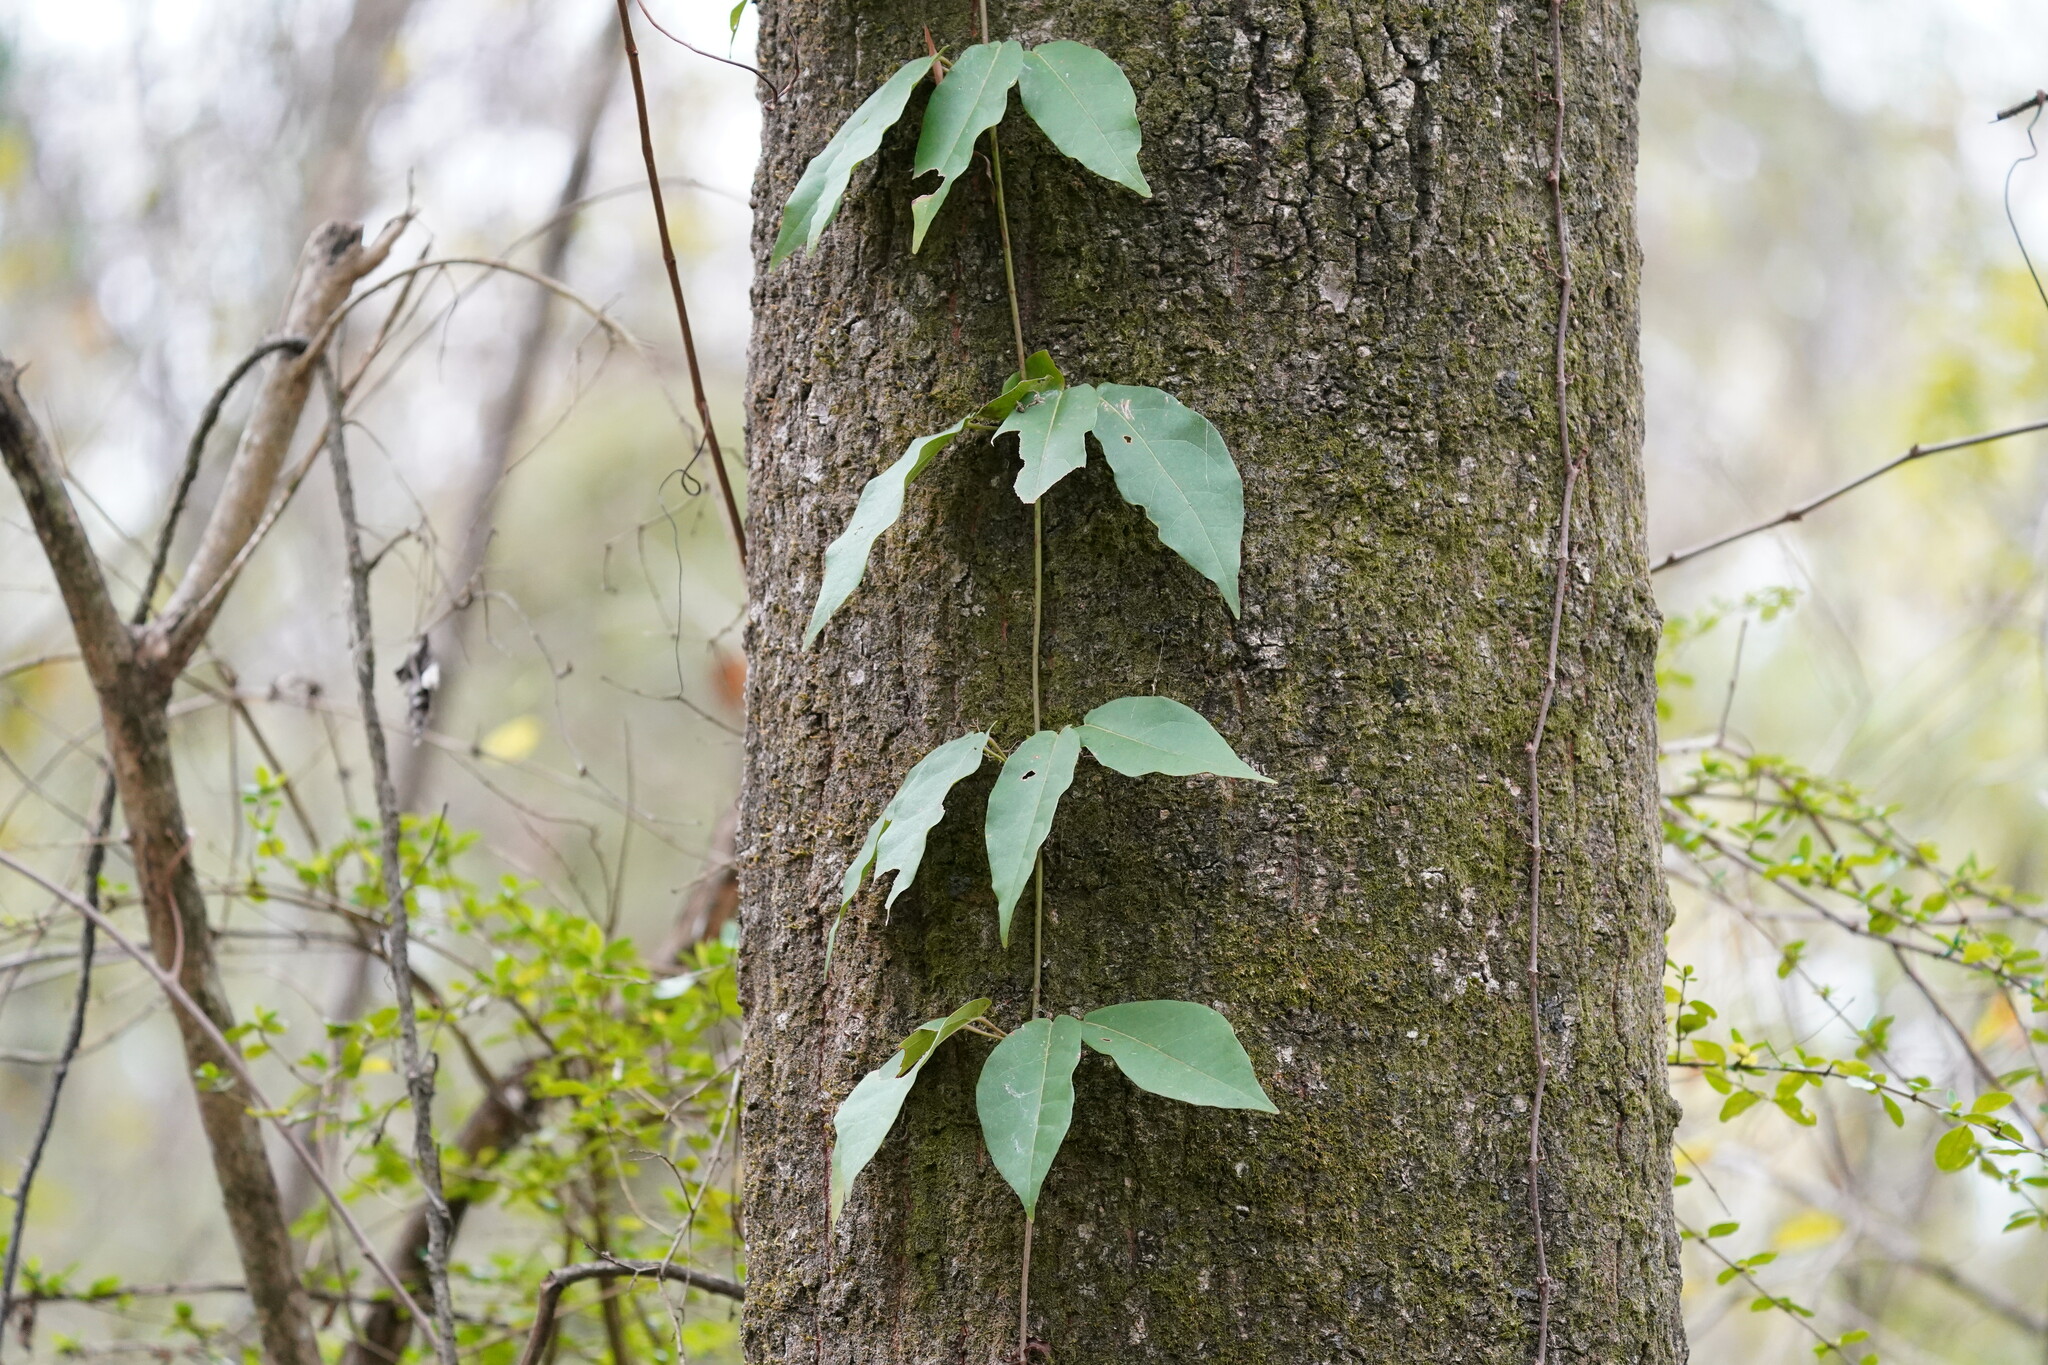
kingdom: Plantae
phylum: Tracheophyta
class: Magnoliopsida
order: Lamiales
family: Bignoniaceae
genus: Bignonia
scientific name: Bignonia capreolata
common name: Crossvine
